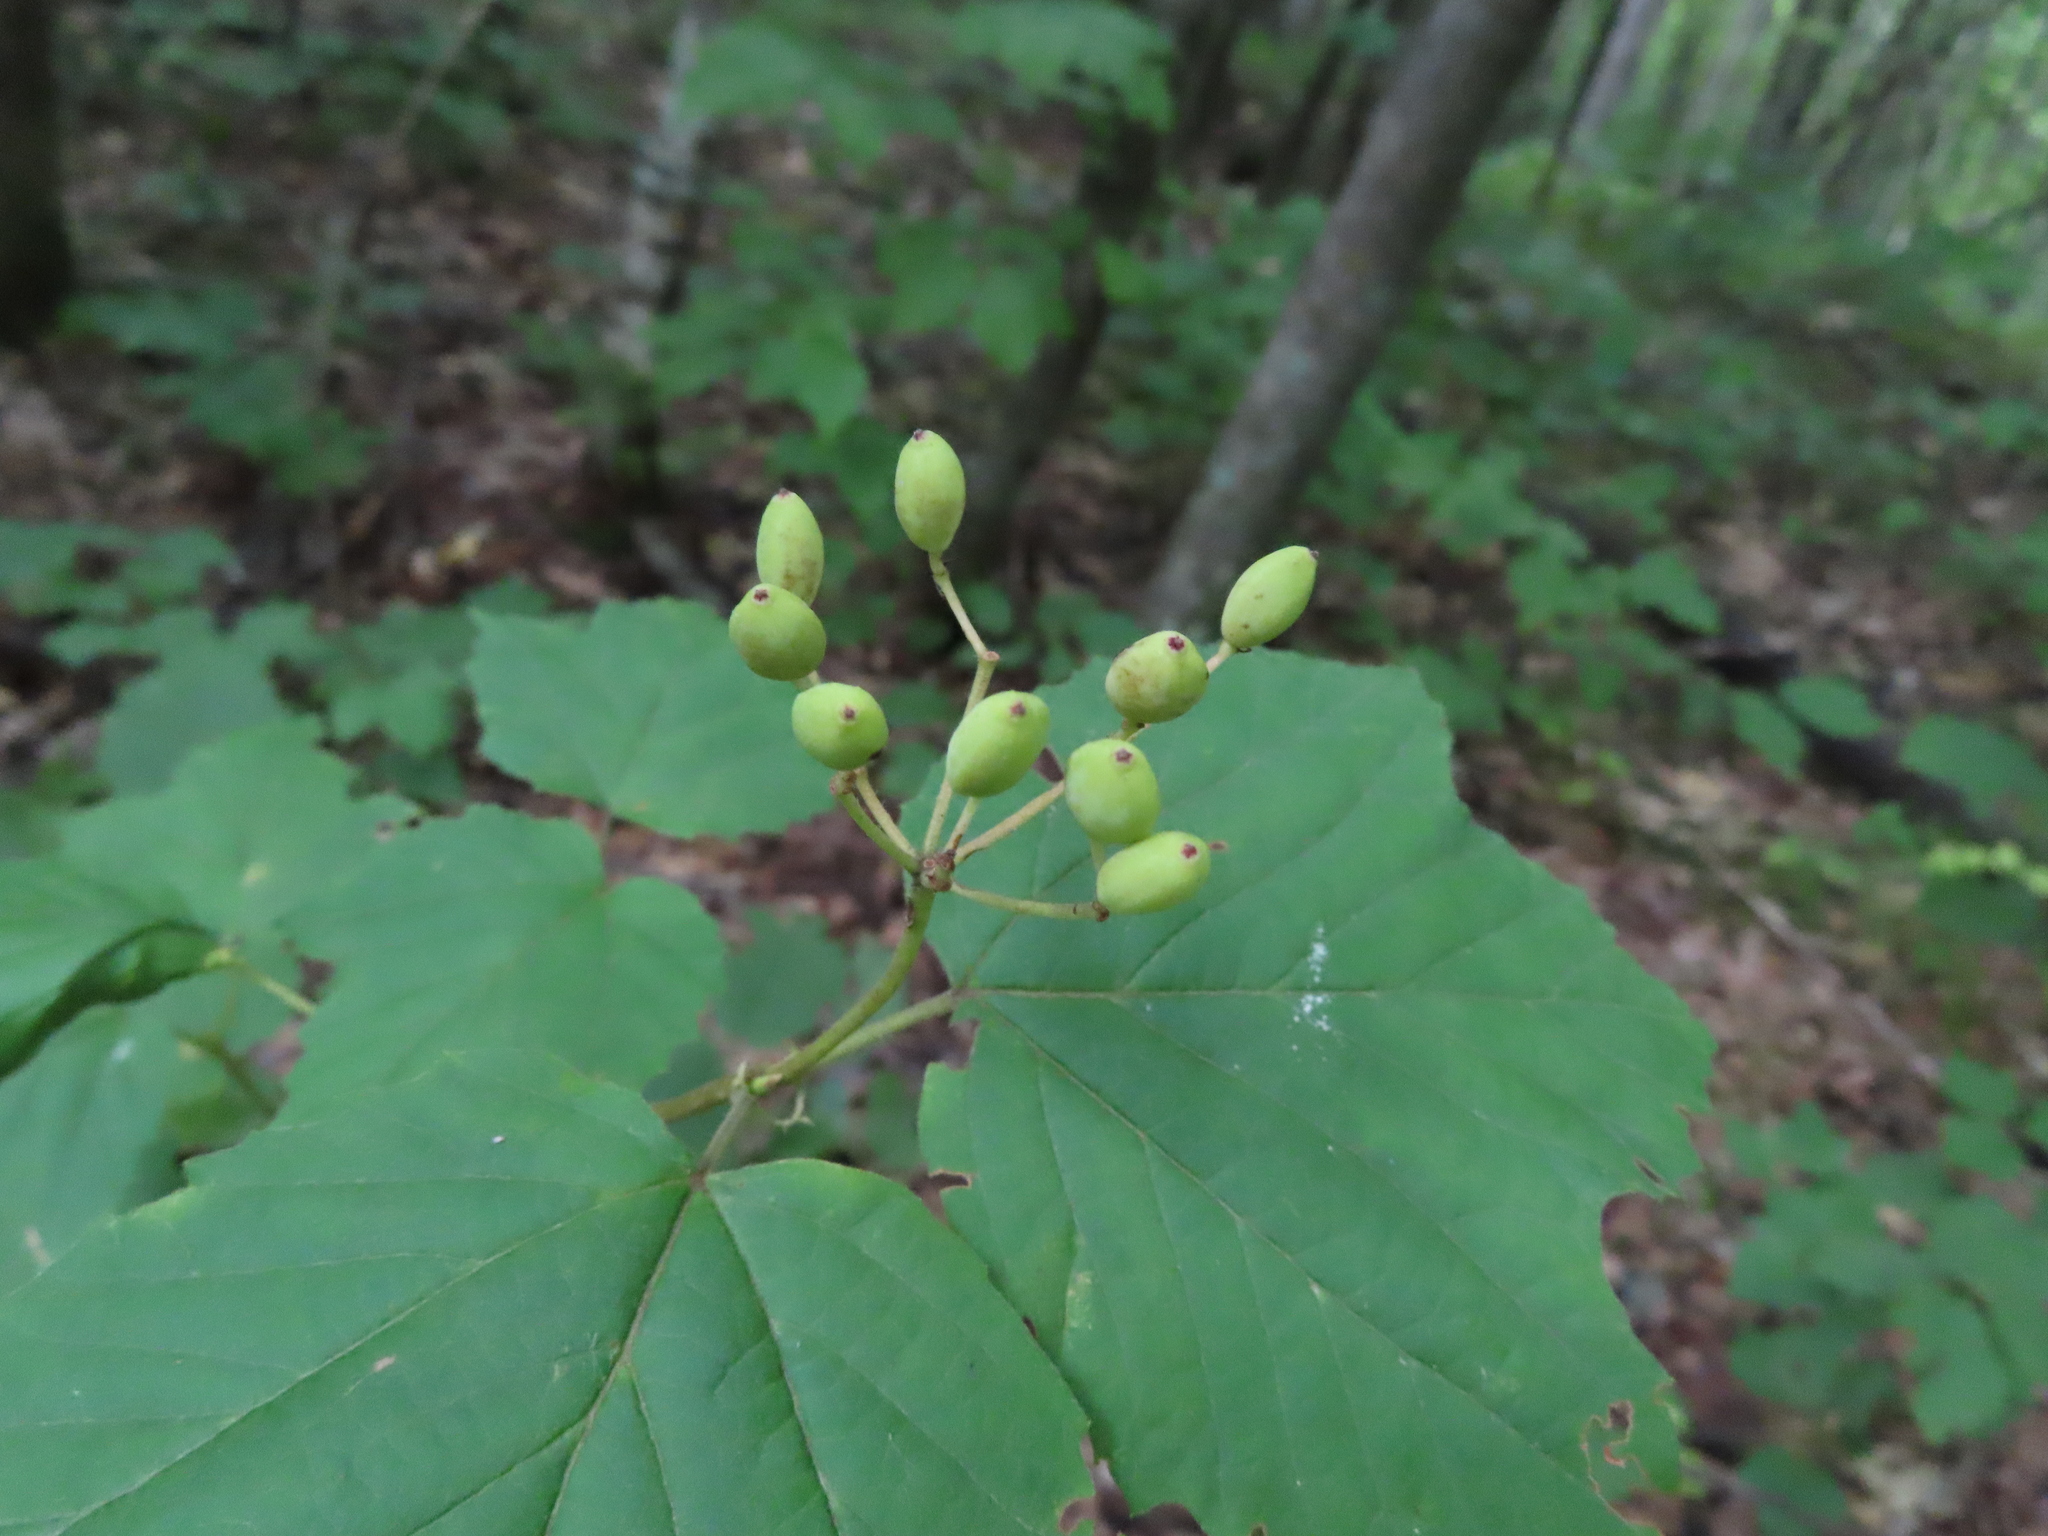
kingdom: Plantae
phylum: Tracheophyta
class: Magnoliopsida
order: Dipsacales
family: Viburnaceae
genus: Viburnum
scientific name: Viburnum acerifolium
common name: Dockmackie
